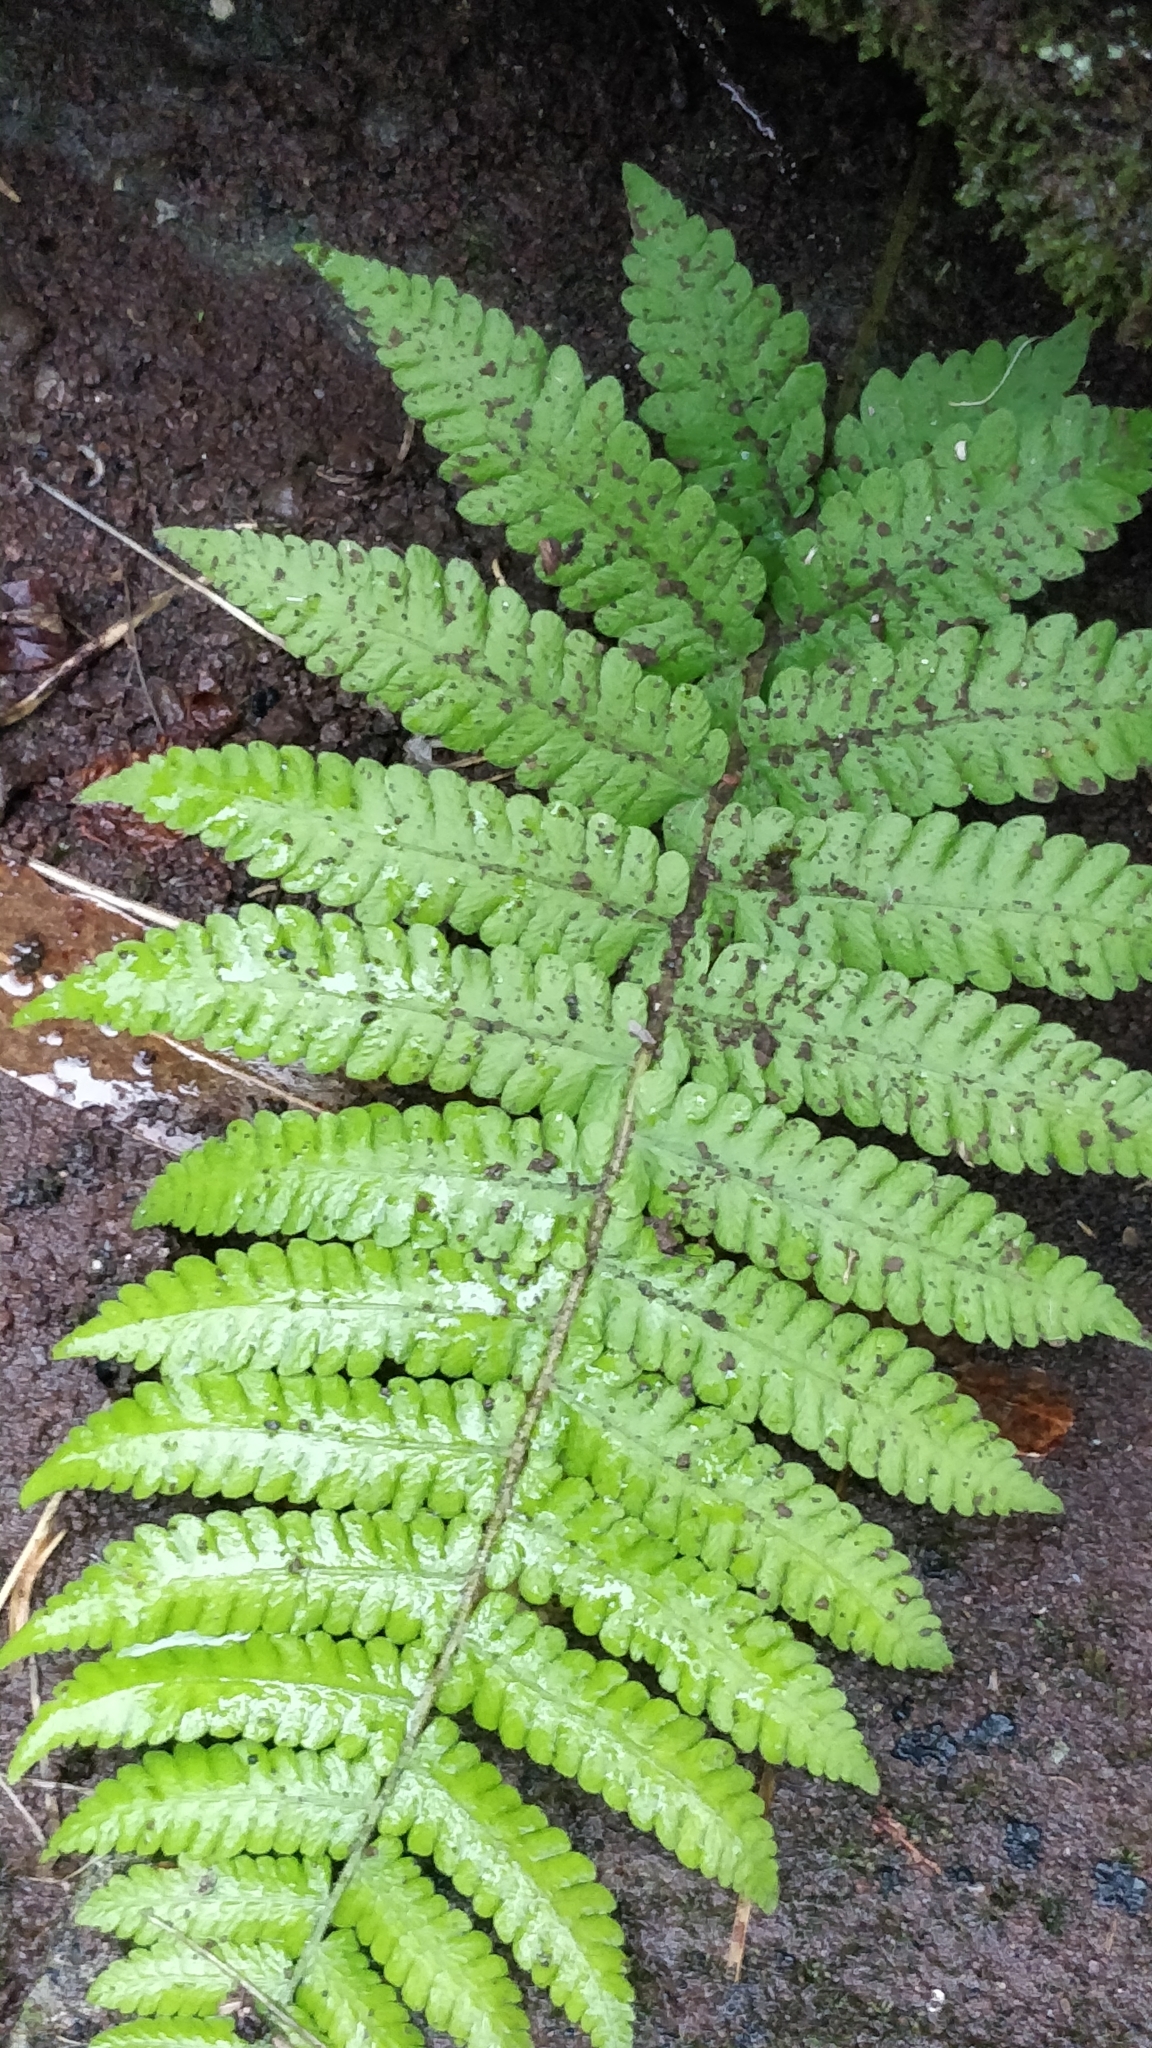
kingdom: Plantae
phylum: Tracheophyta
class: Polypodiopsida
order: Polypodiales
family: Thelypteridaceae
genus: Leptogramma
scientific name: Leptogramma pozoi
